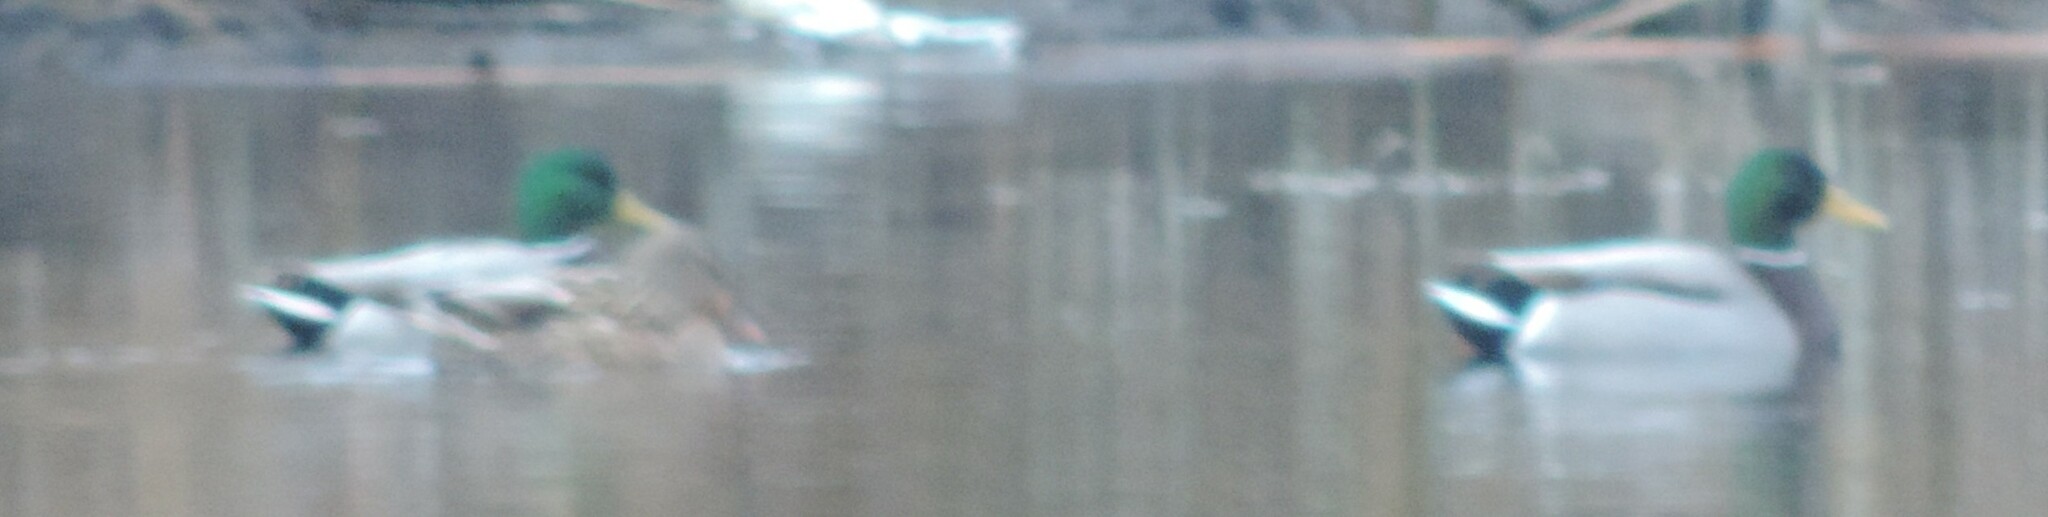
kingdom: Animalia
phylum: Chordata
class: Aves
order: Anseriformes
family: Anatidae
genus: Anas
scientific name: Anas platyrhynchos
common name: Mallard
